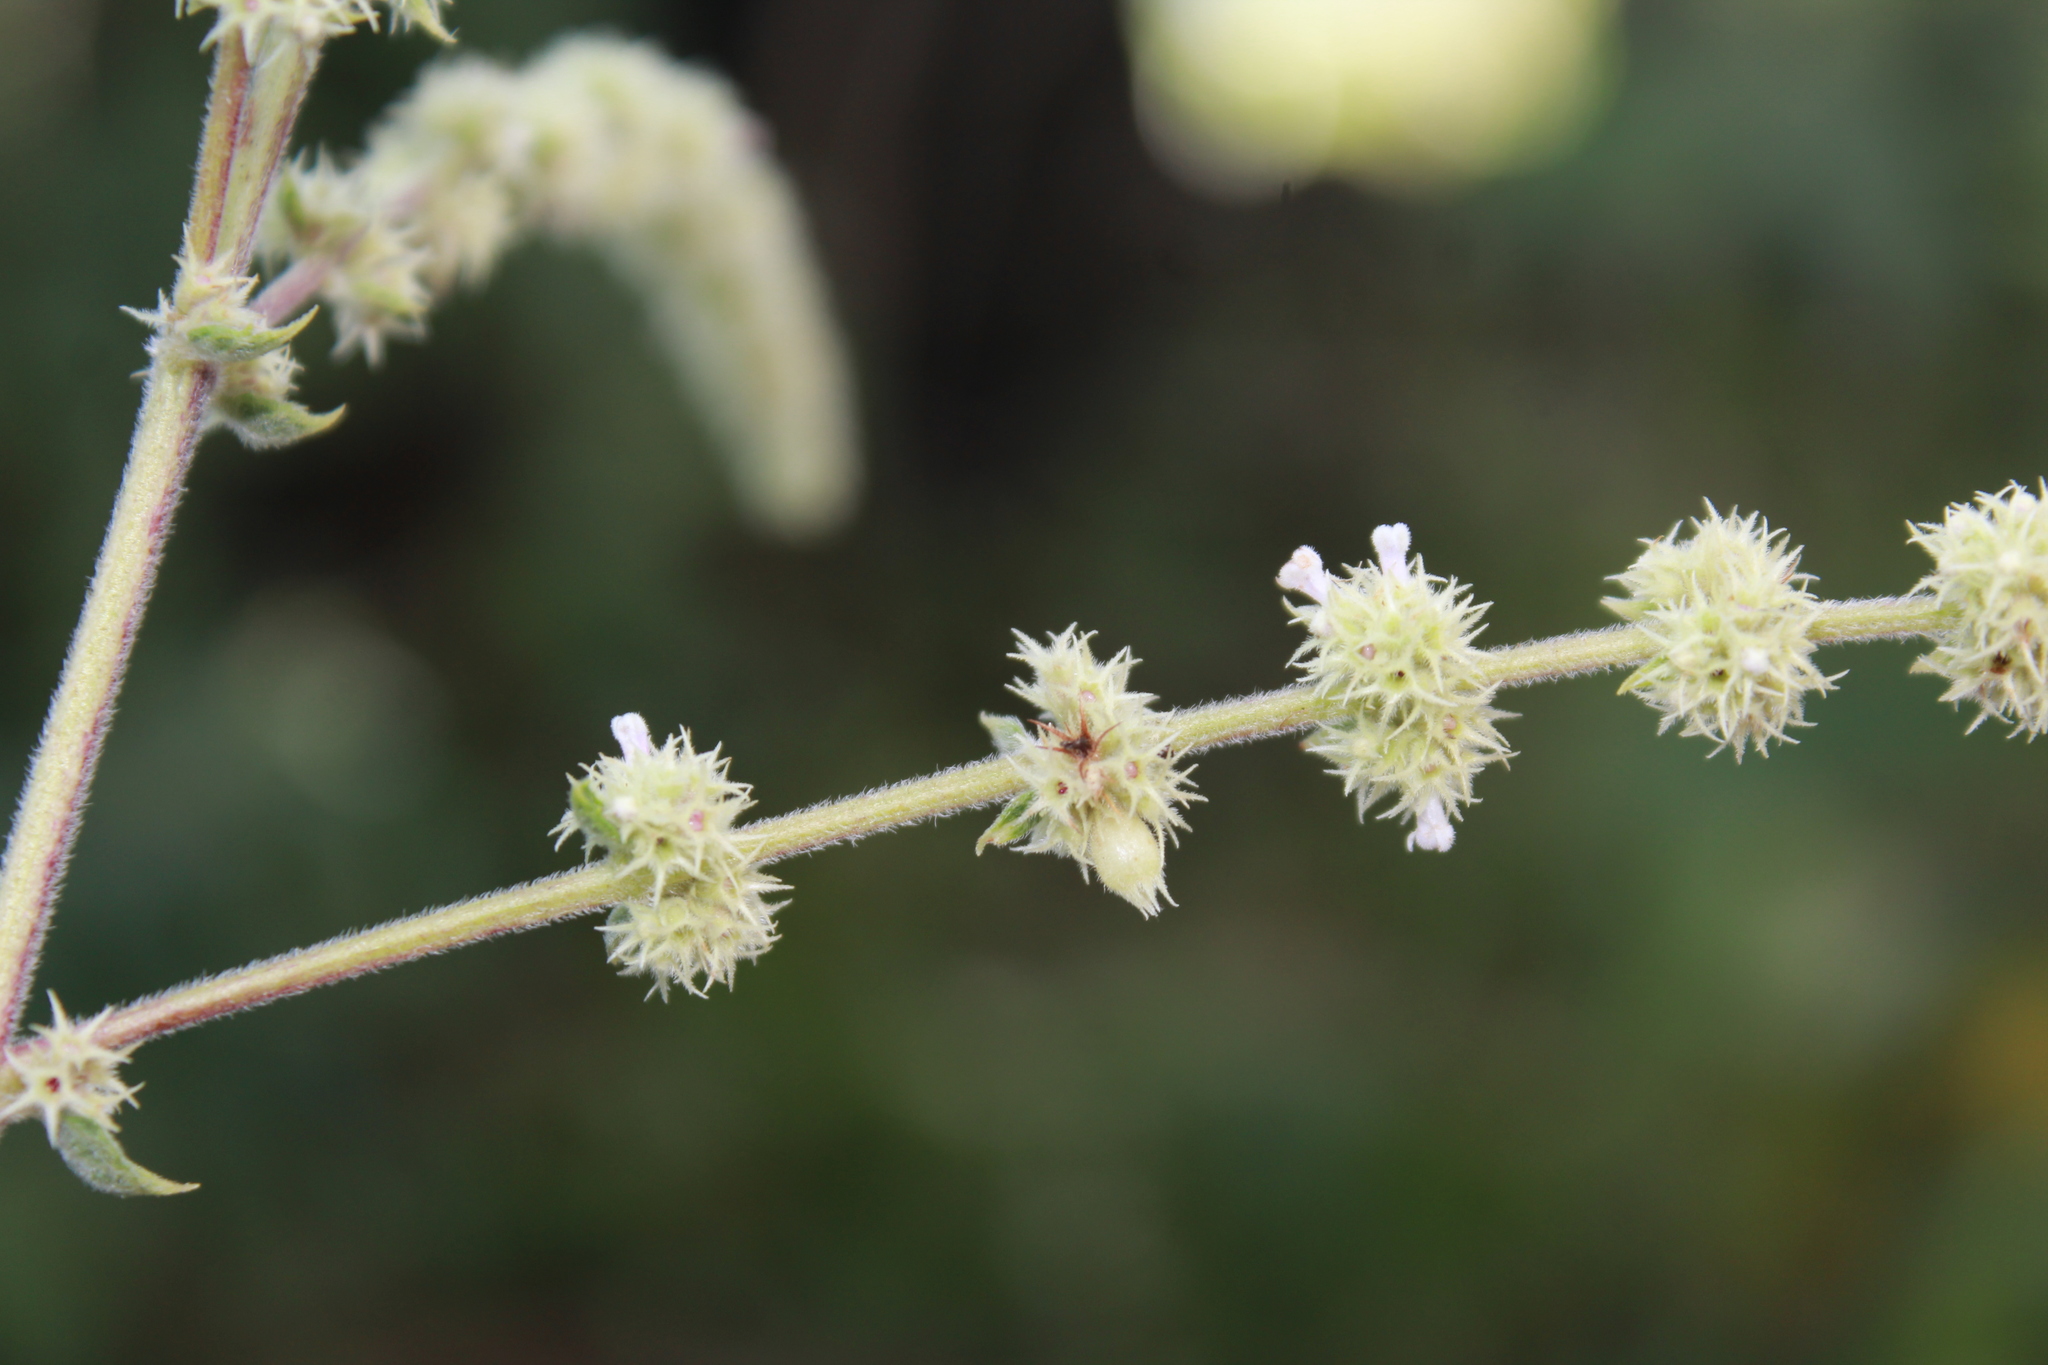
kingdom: Plantae
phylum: Tracheophyta
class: Magnoliopsida
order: Lamiales
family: Lamiaceae
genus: Asterohyptis
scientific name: Asterohyptis stellulata
